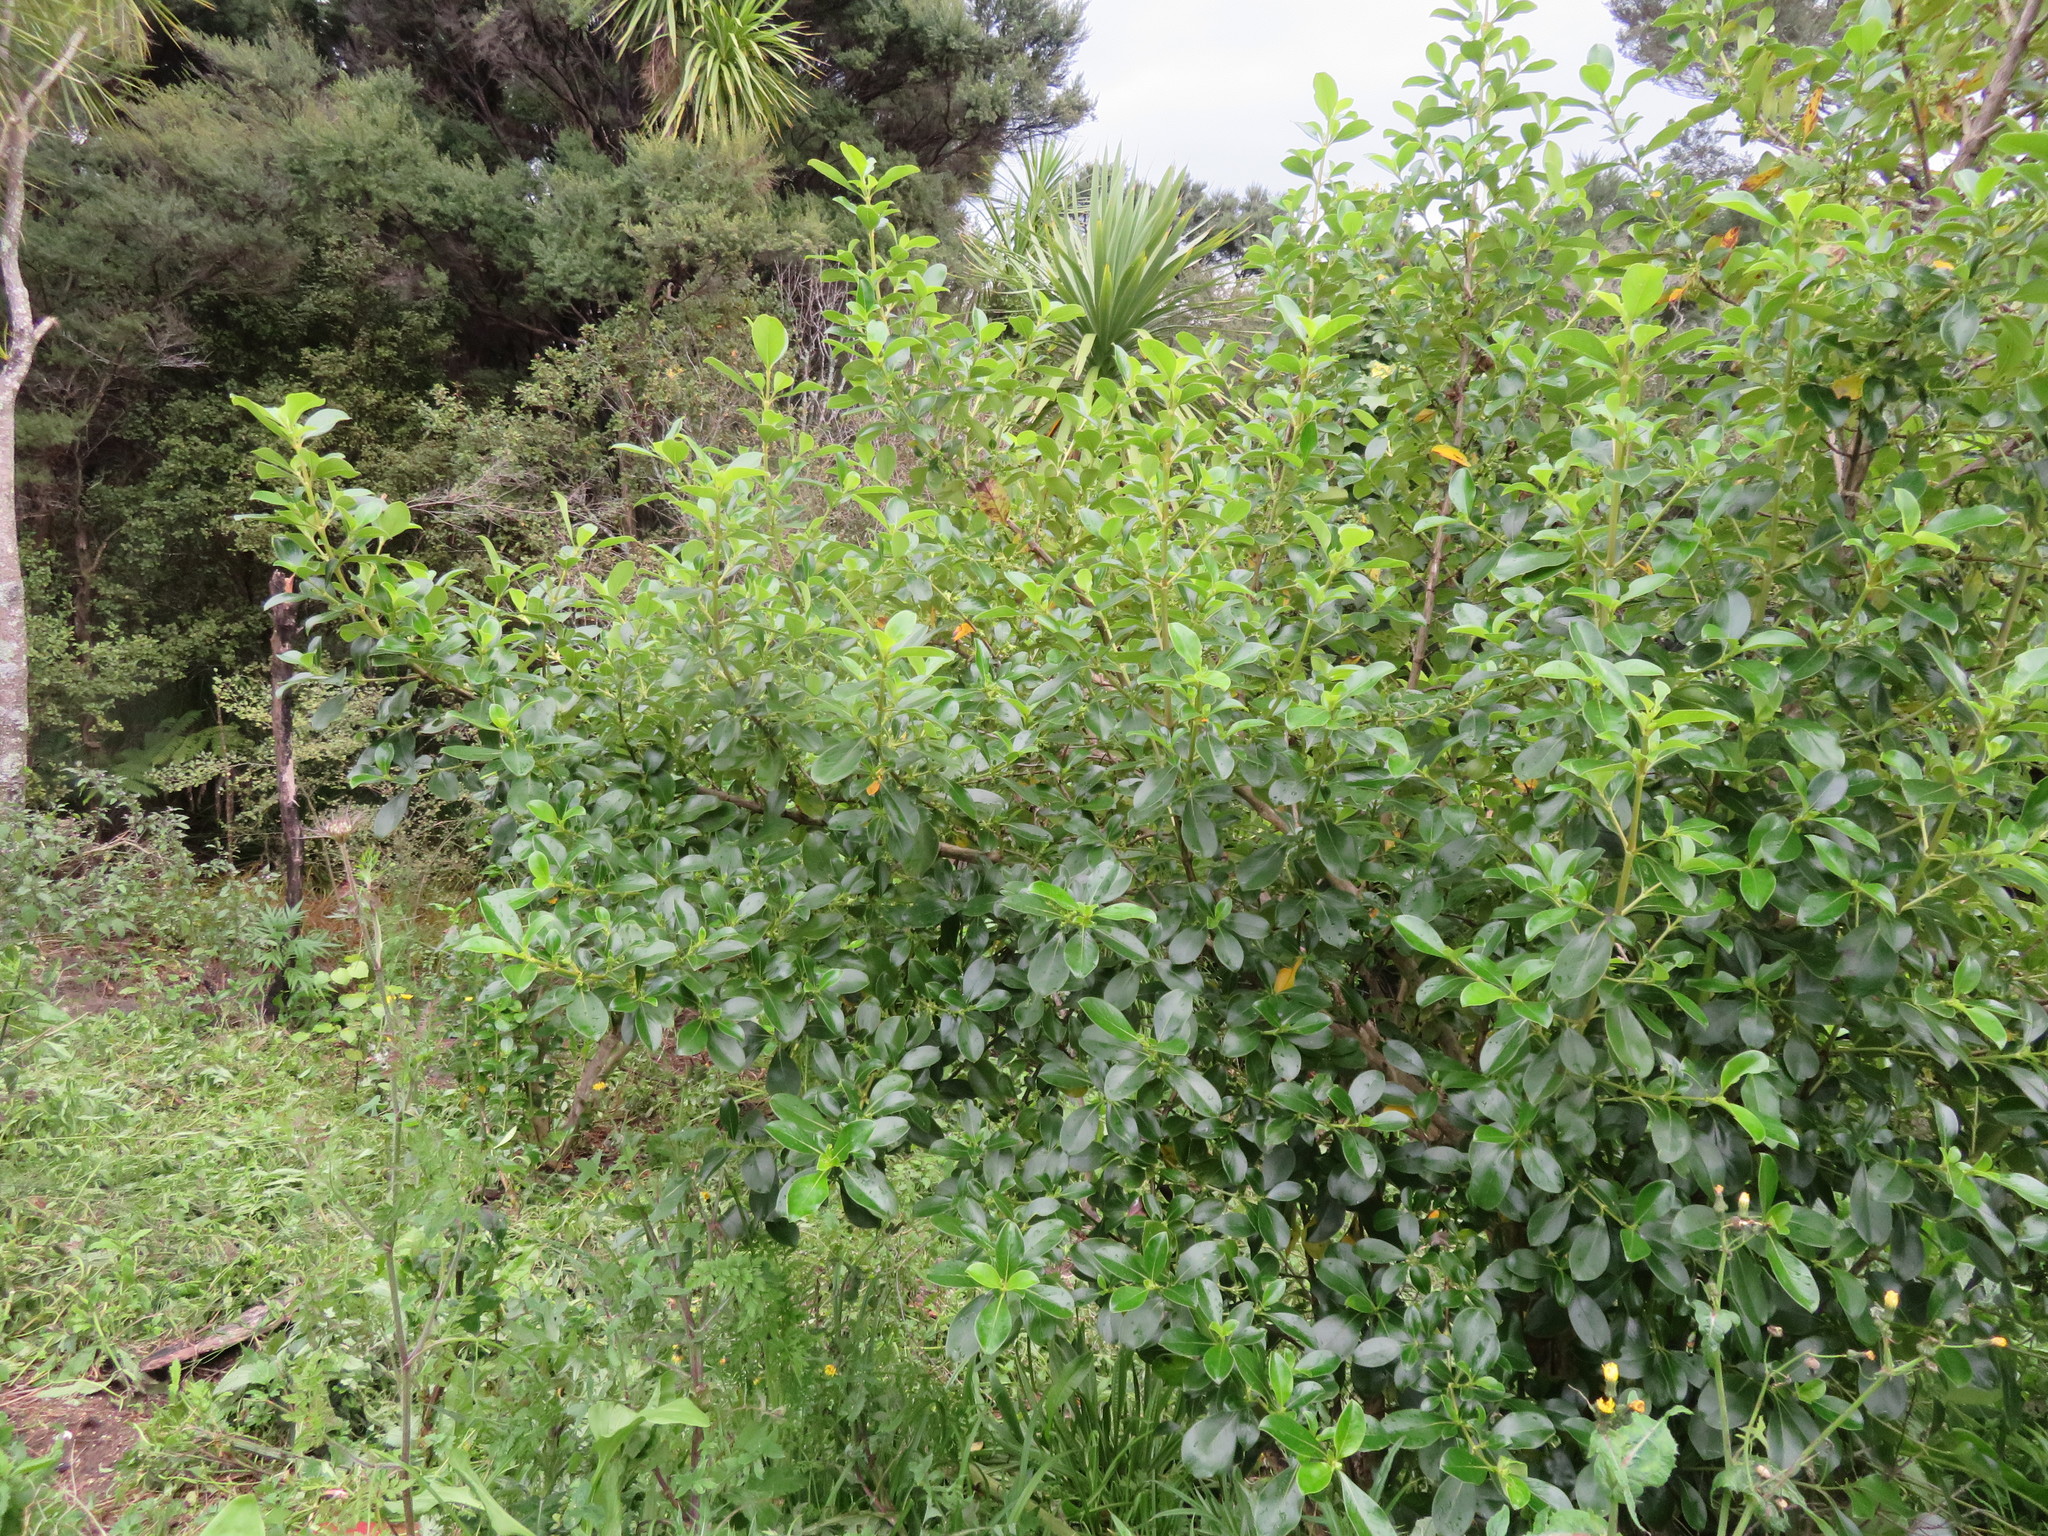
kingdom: Plantae
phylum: Tracheophyta
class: Magnoliopsida
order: Gentianales
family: Rubiaceae
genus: Coprosma
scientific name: Coprosma robusta
